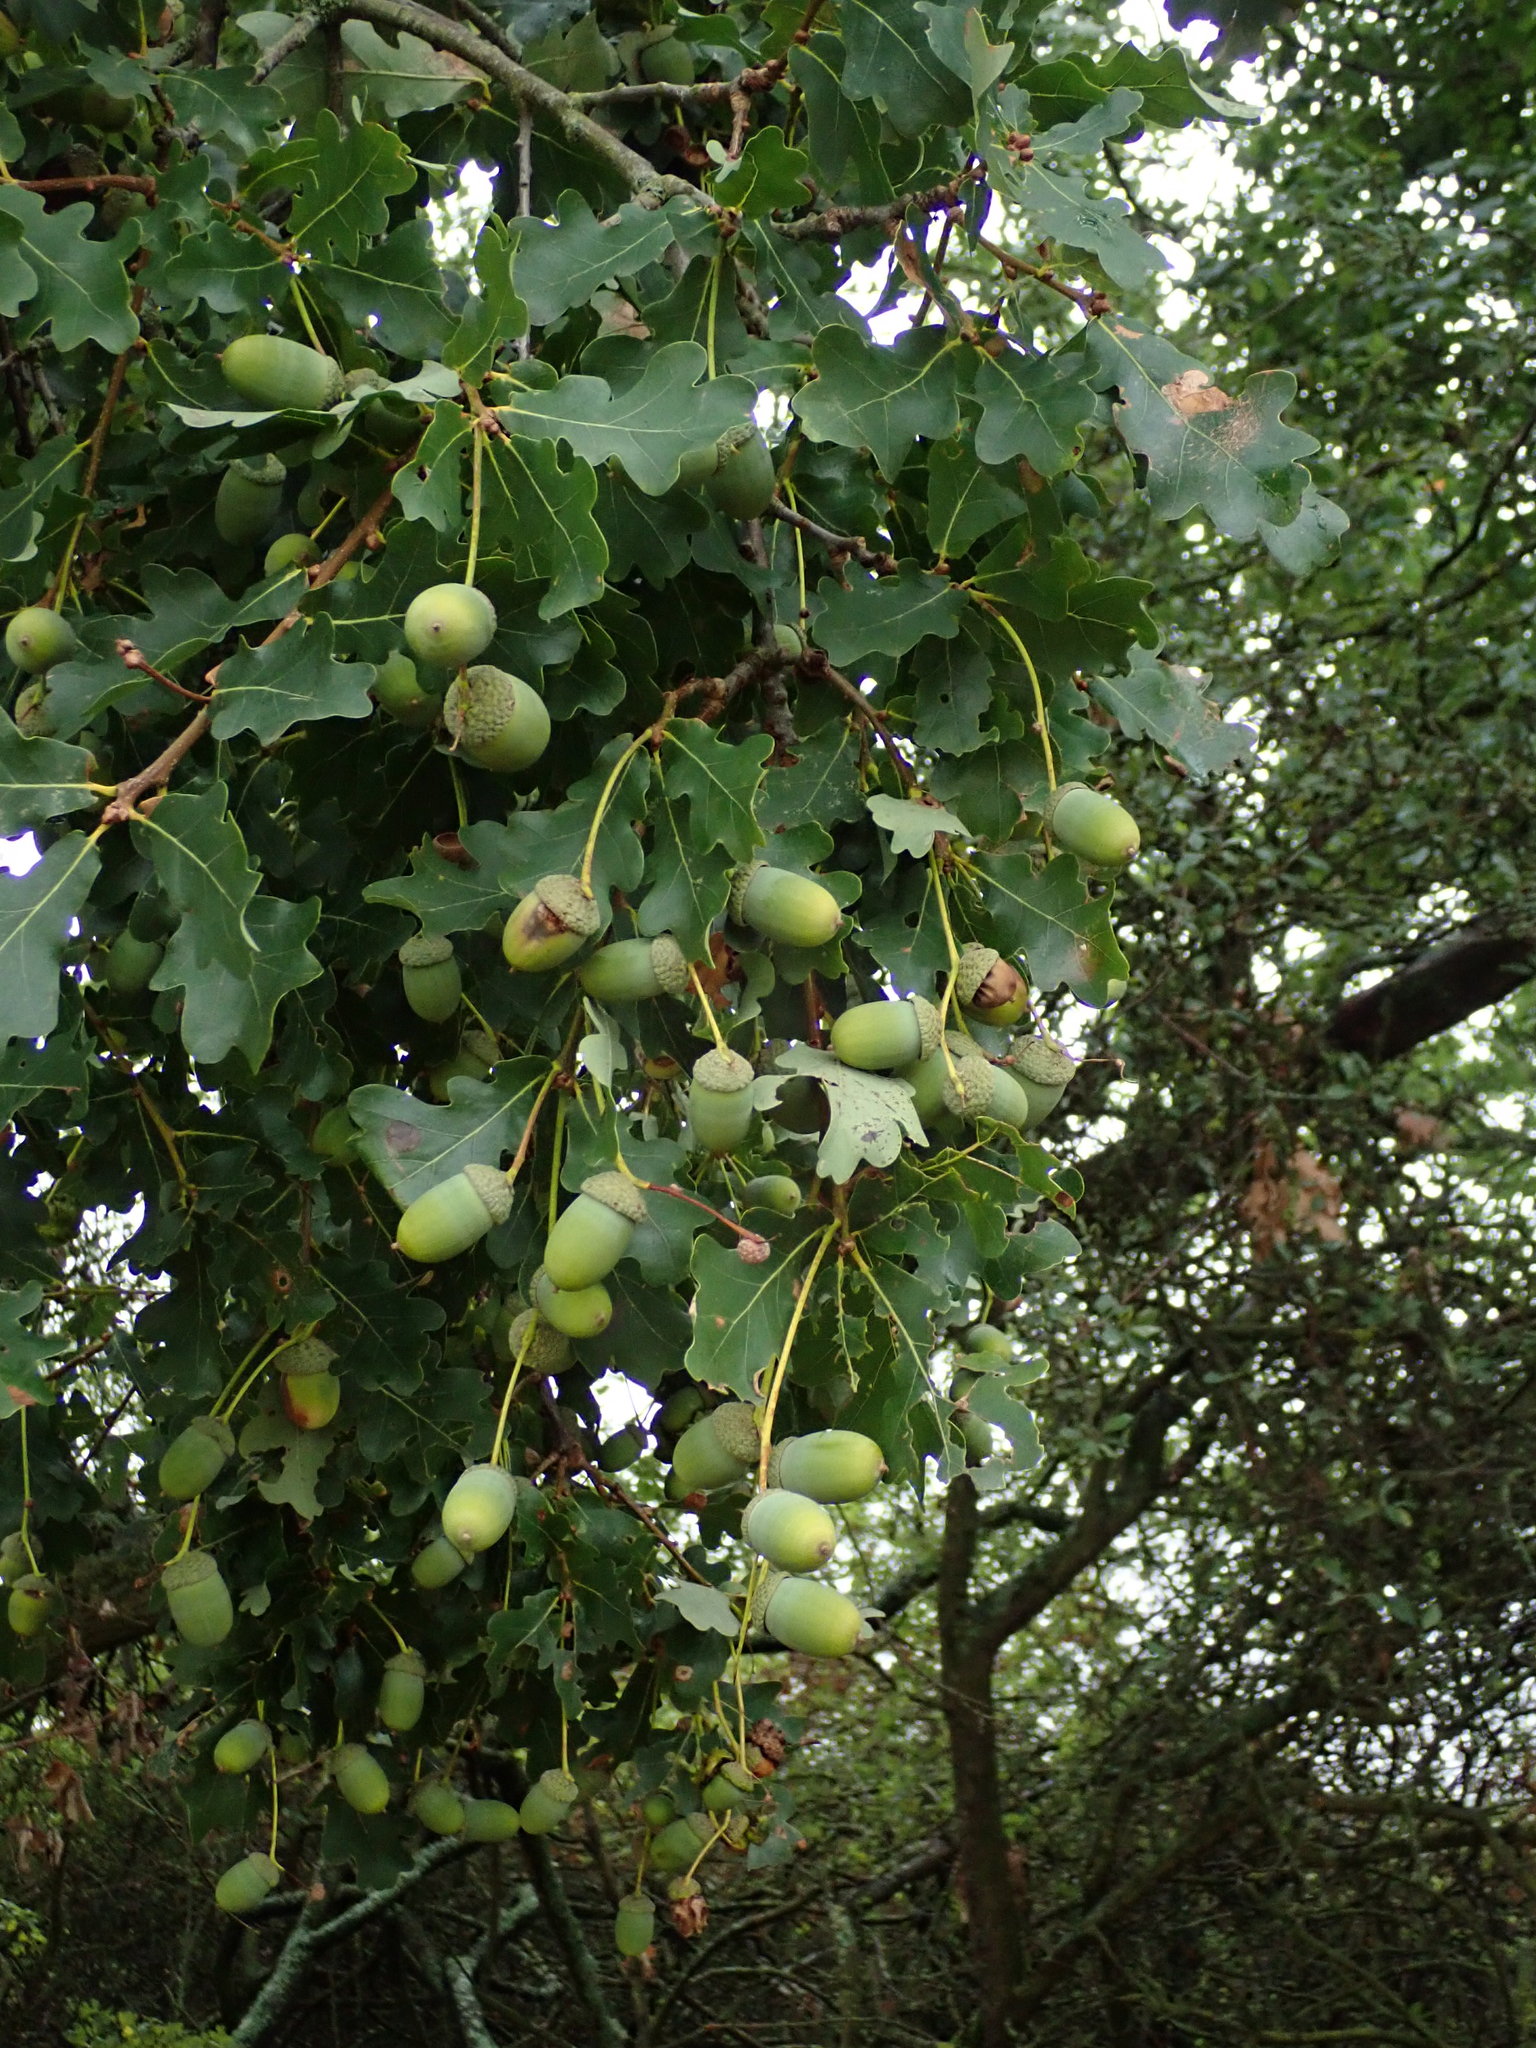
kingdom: Plantae
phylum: Tracheophyta
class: Magnoliopsida
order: Fagales
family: Fagaceae
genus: Quercus
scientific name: Quercus robur
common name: Pedunculate oak
